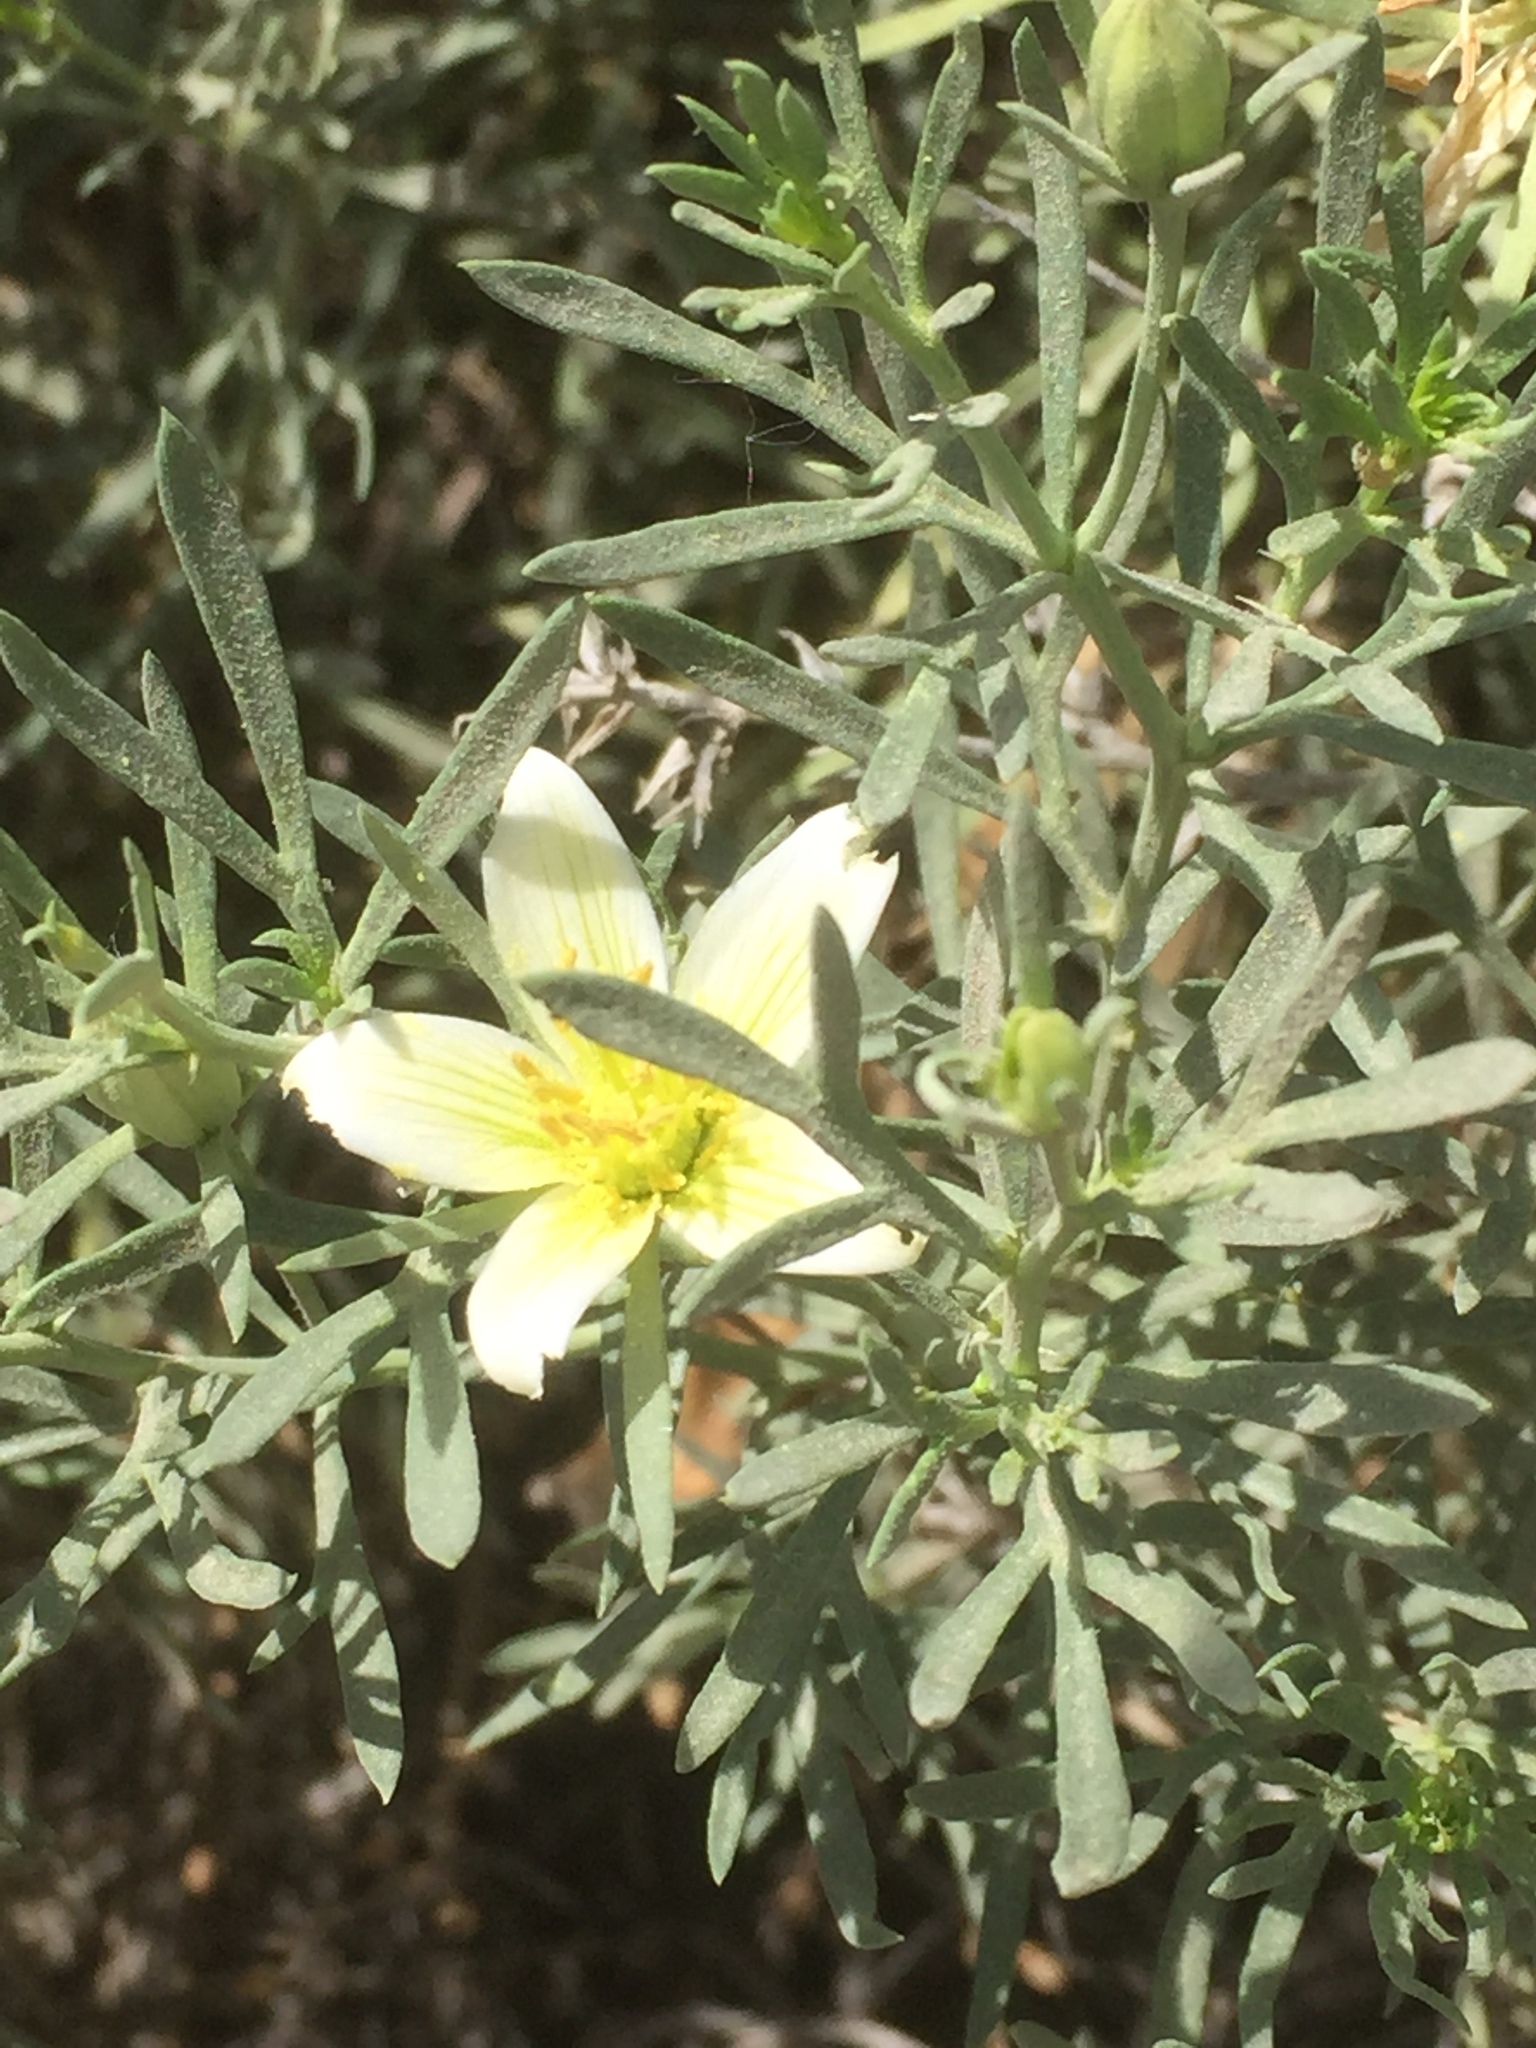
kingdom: Plantae
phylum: Tracheophyta
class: Magnoliopsida
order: Sapindales
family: Tetradiclidaceae
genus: Peganum
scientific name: Peganum harmala
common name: Harmal peganum
